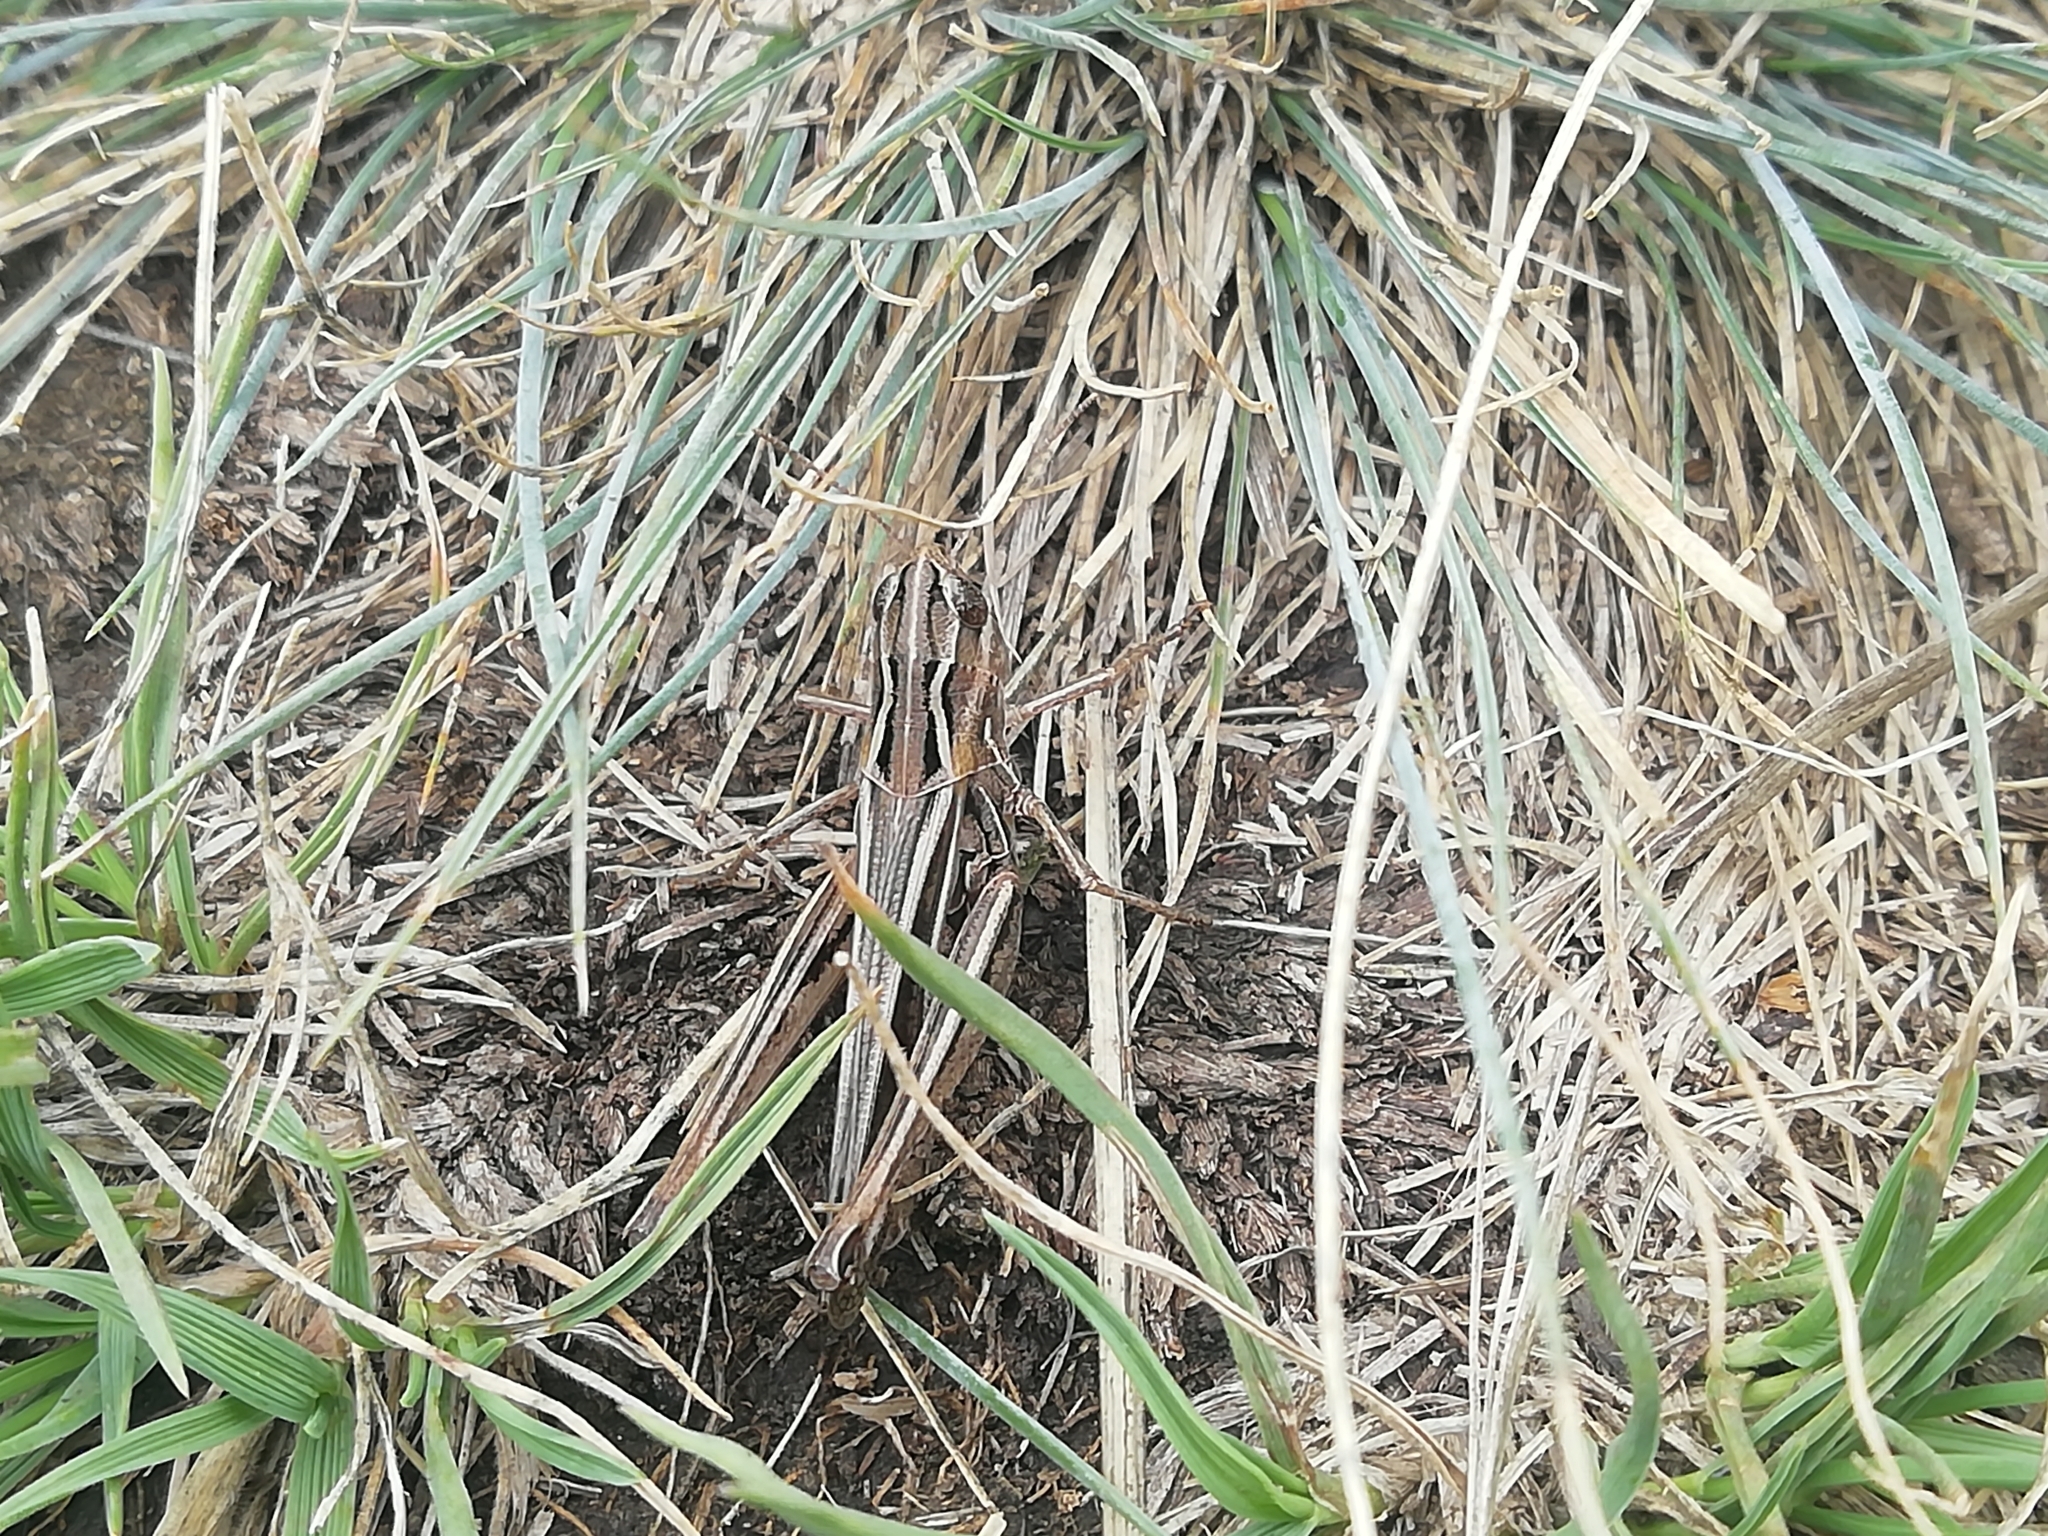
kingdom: Animalia
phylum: Arthropoda
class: Insecta
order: Orthoptera
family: Acrididae
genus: Stenobothrus
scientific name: Stenobothrus eurasius
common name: Eurasian toothed grasshopper
